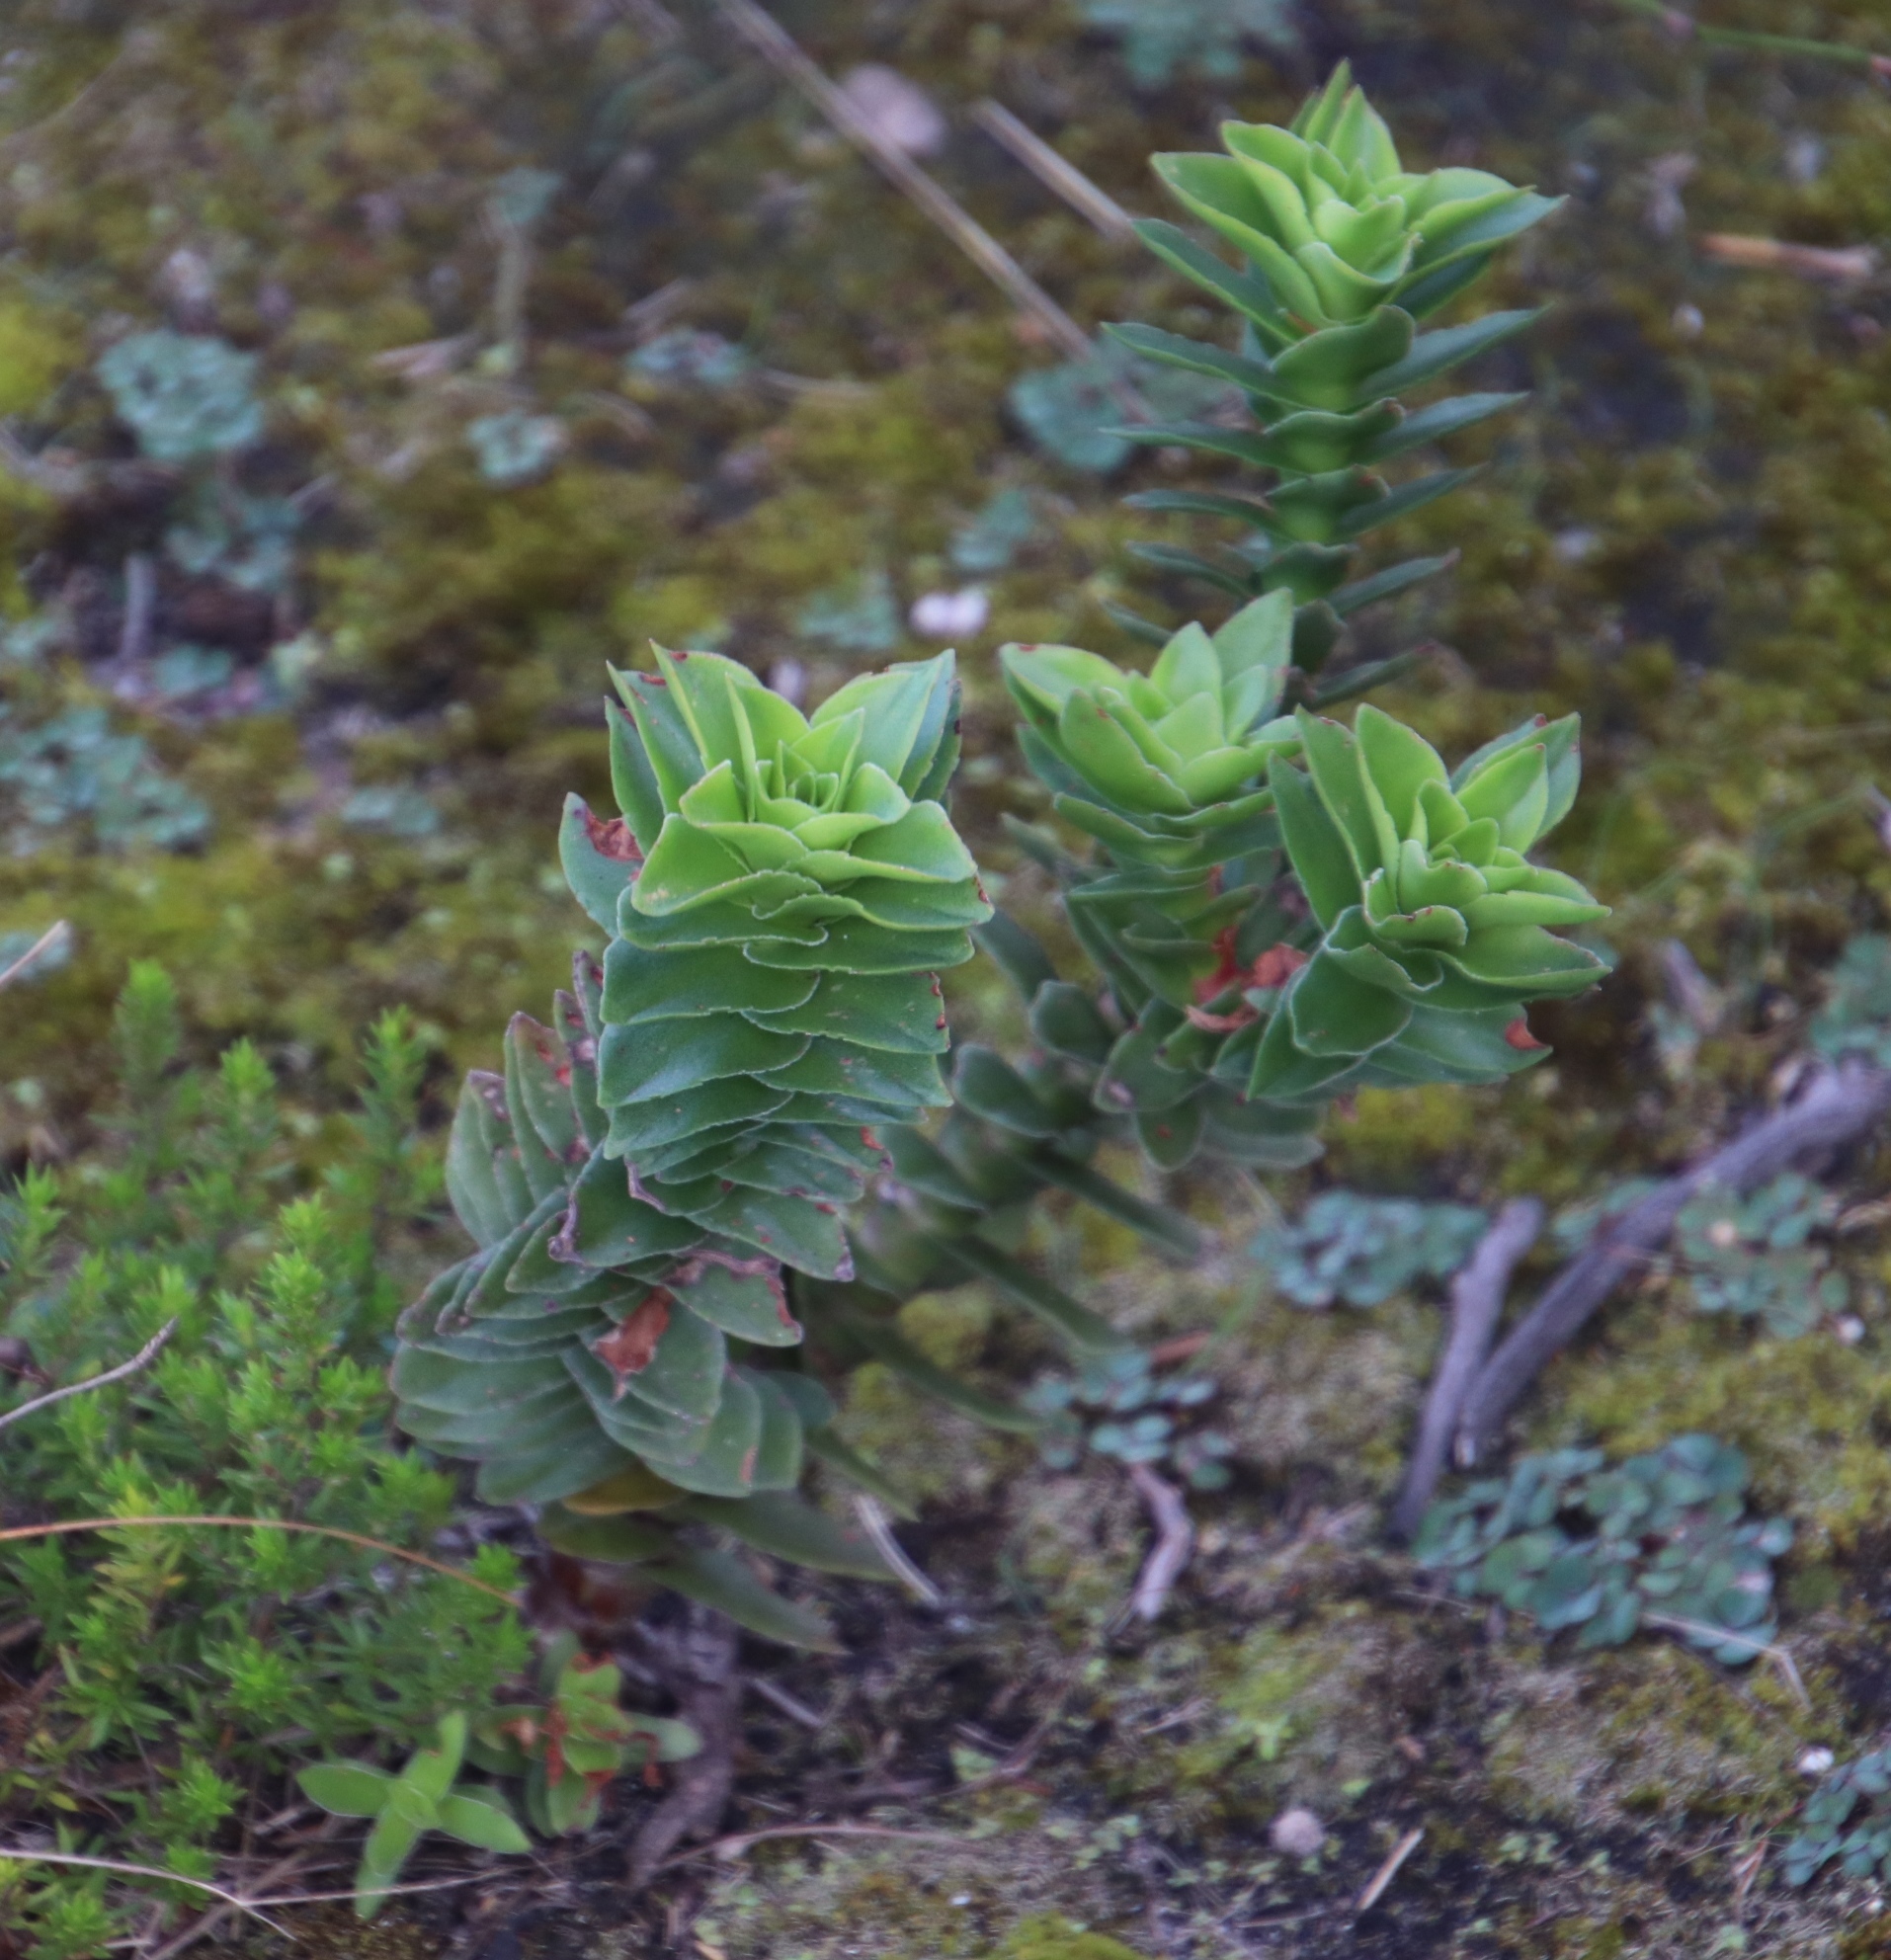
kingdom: Plantae
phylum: Tracheophyta
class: Magnoliopsida
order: Saxifragales
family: Crassulaceae
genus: Crassula
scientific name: Crassula coccinea
